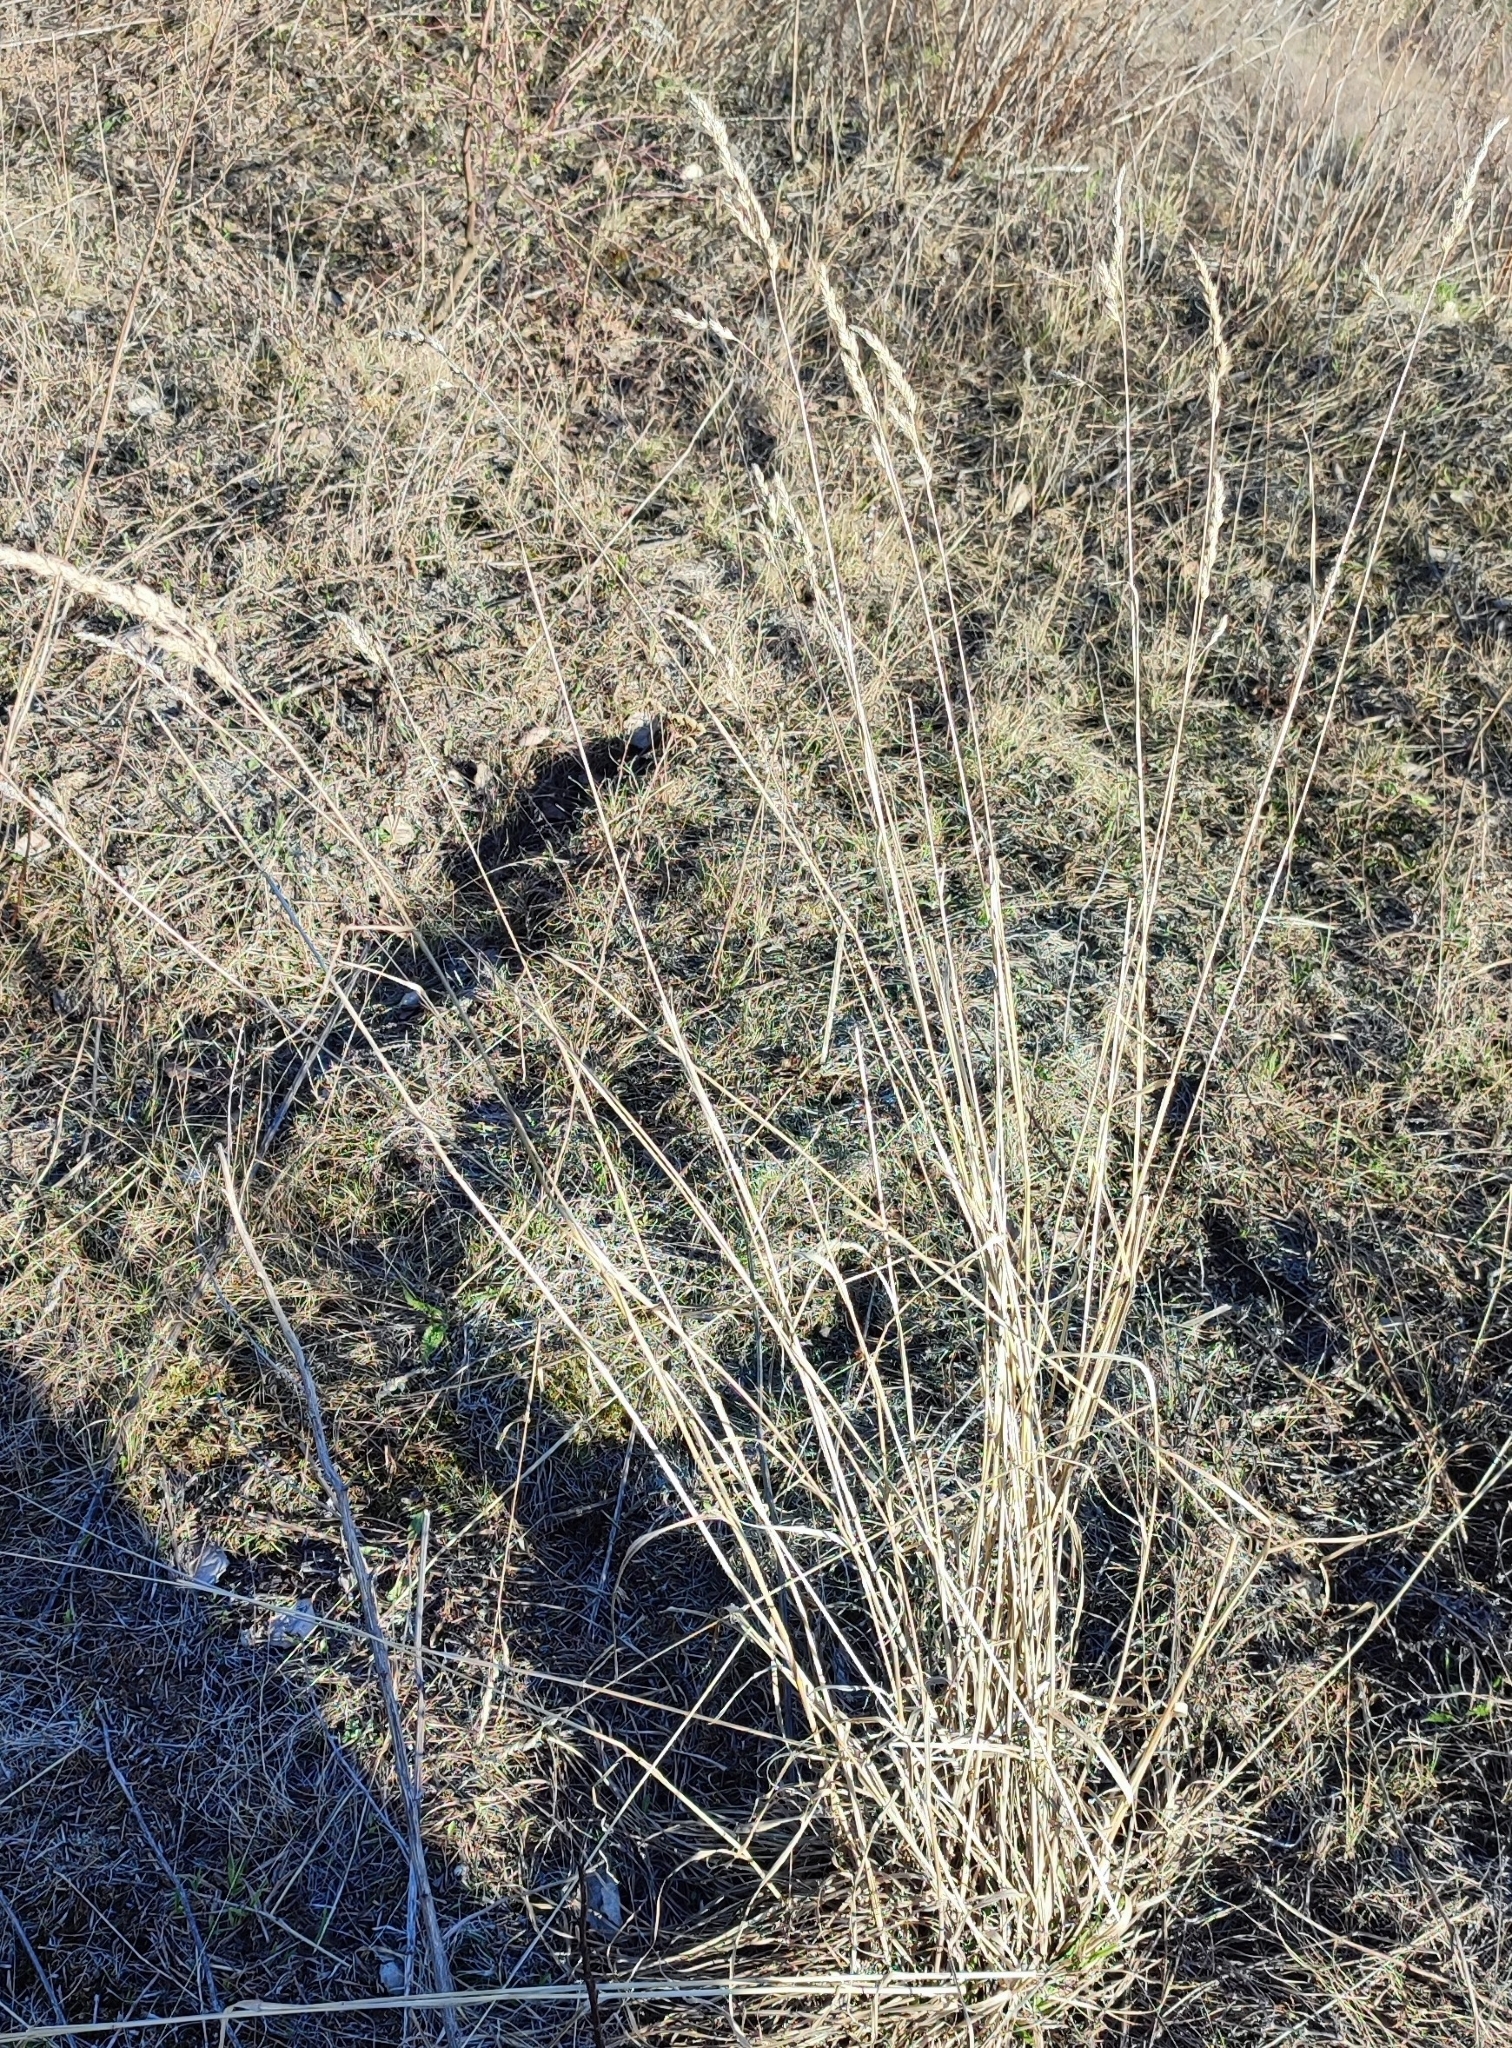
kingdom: Plantae
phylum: Tracheophyta
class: Liliopsida
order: Poales
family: Poaceae
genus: Phalaris
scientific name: Phalaris arundinacea
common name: Reed canary-grass
